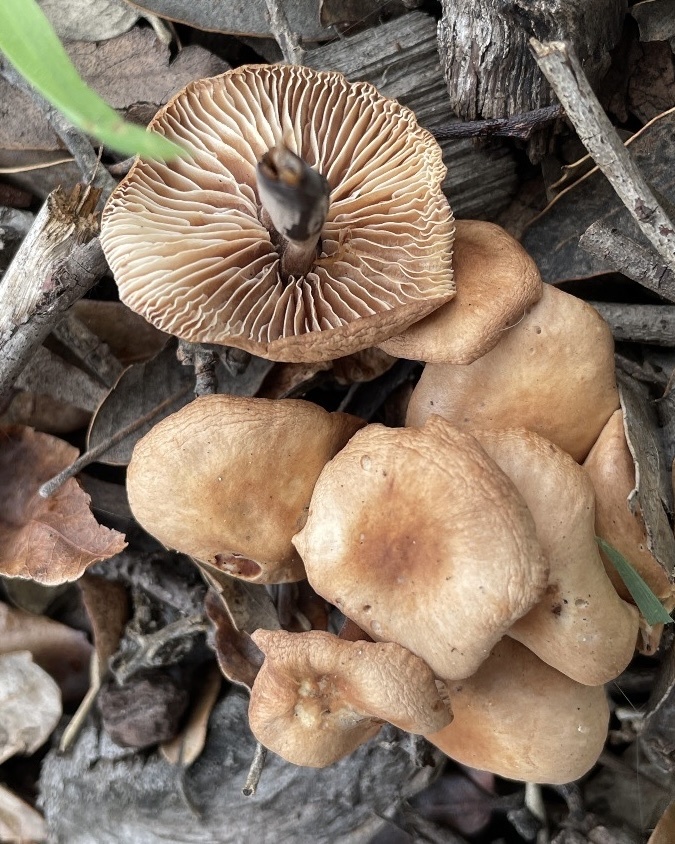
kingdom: Fungi
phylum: Basidiomycota
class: Agaricomycetes
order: Agaricales
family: Omphalotaceae
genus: Gymnopus
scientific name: Gymnopus brassicolens
